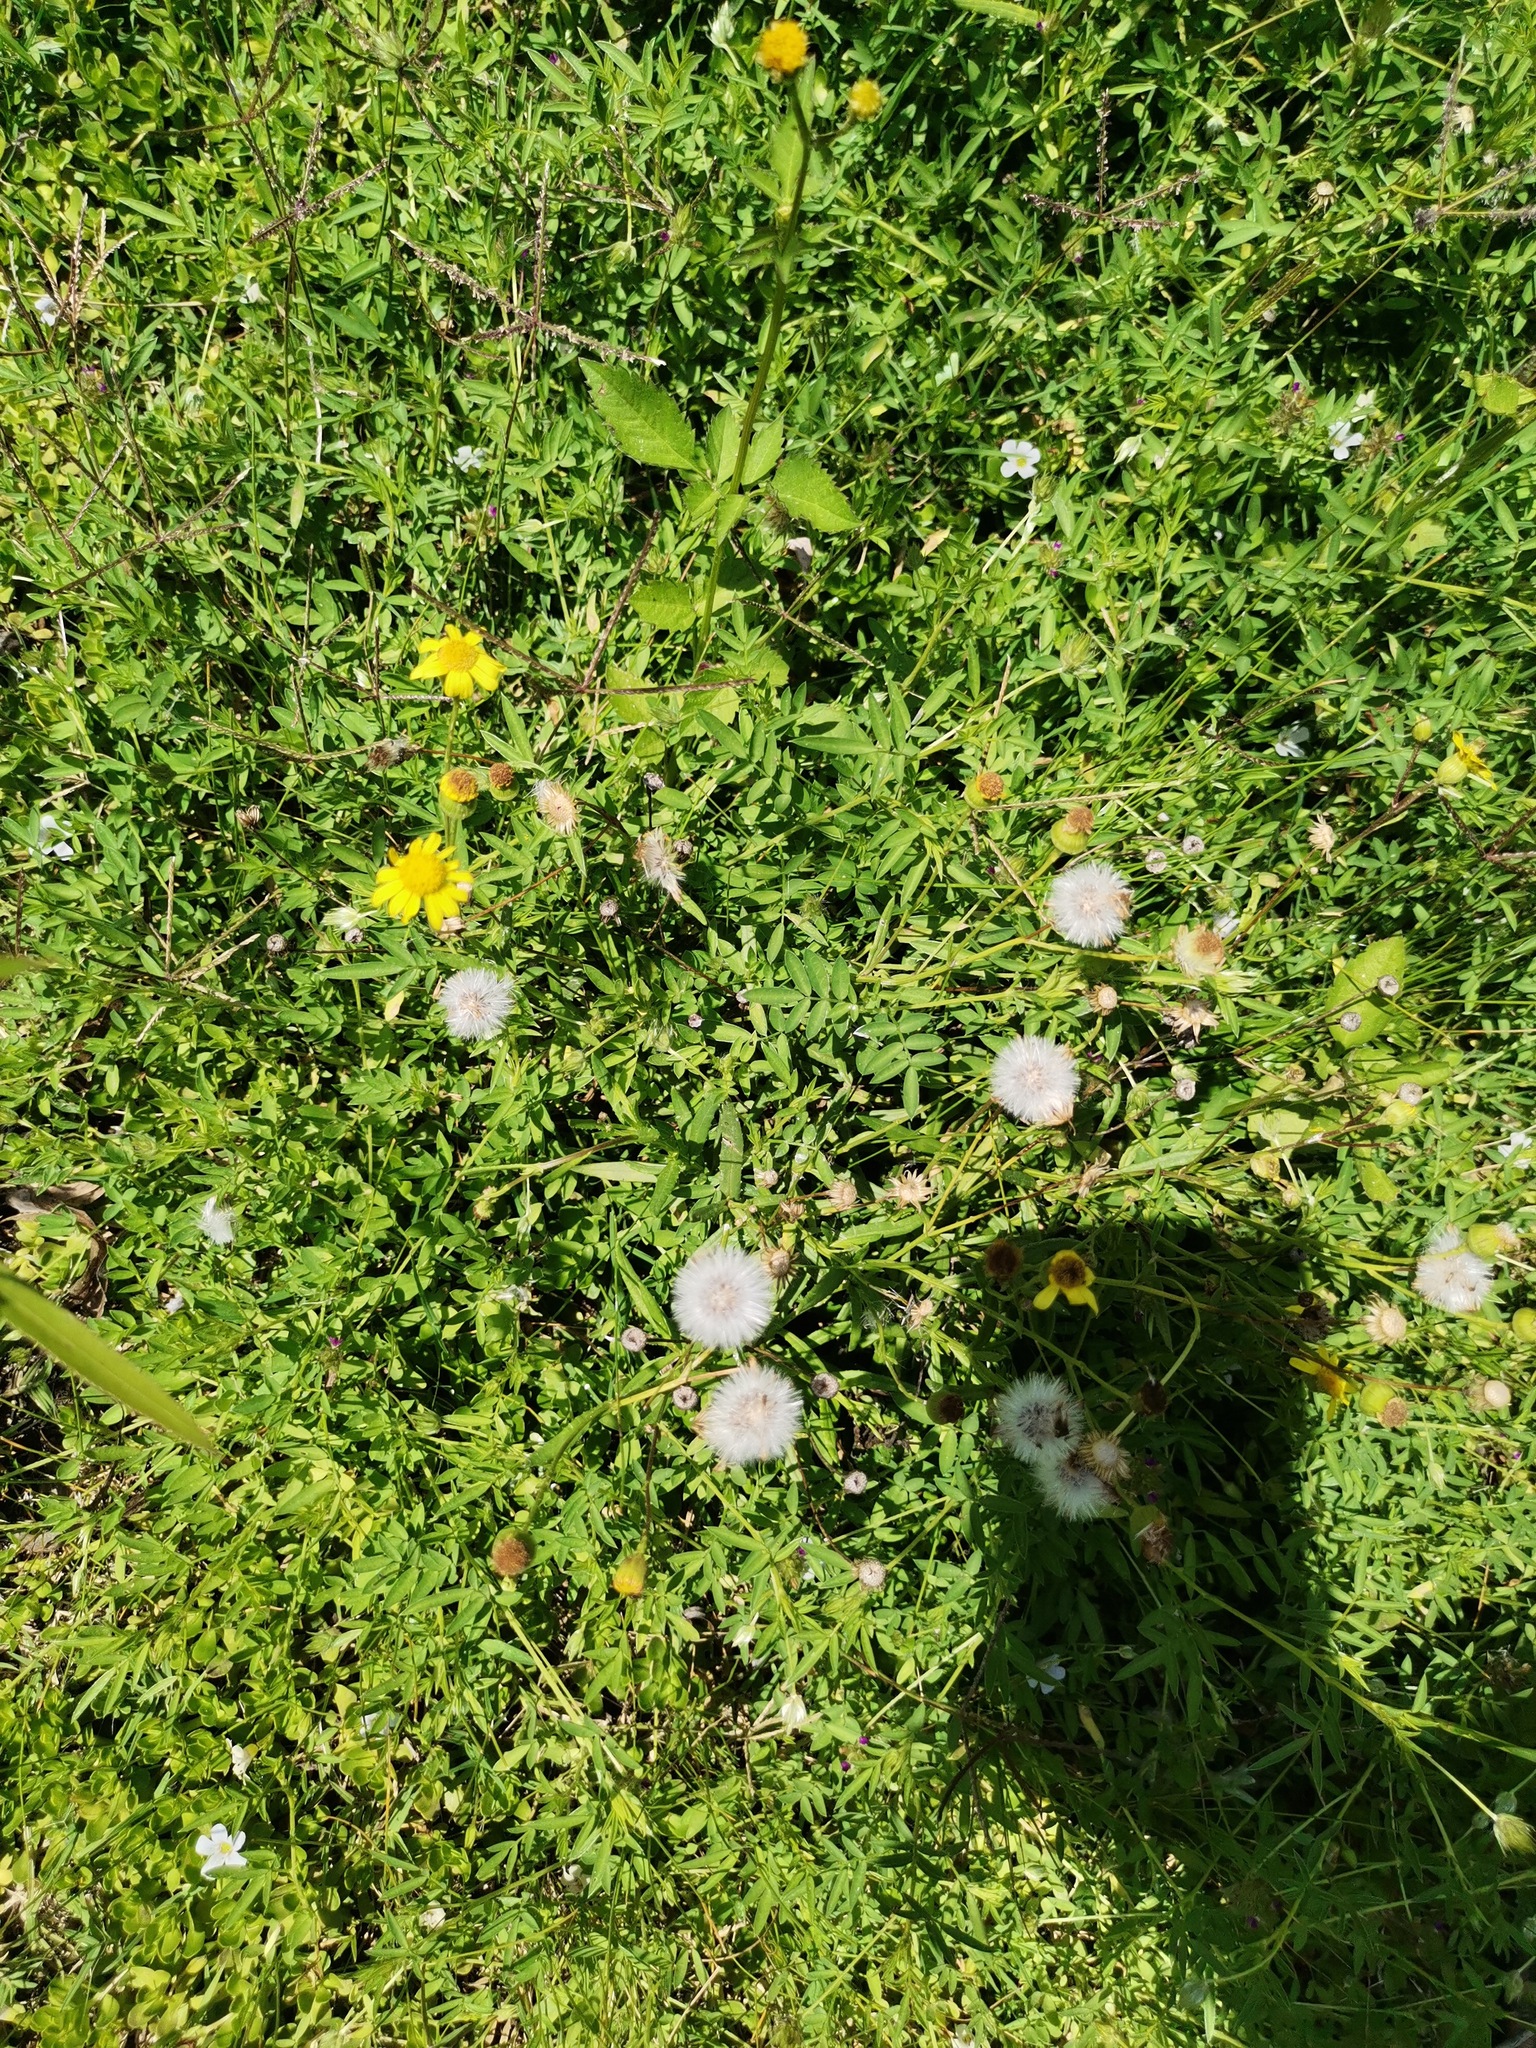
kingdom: Plantae
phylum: Tracheophyta
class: Magnoliopsida
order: Asterales
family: Asteraceae
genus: Senecio
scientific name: Senecio inaequidens
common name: Narrow-leaved ragwort
